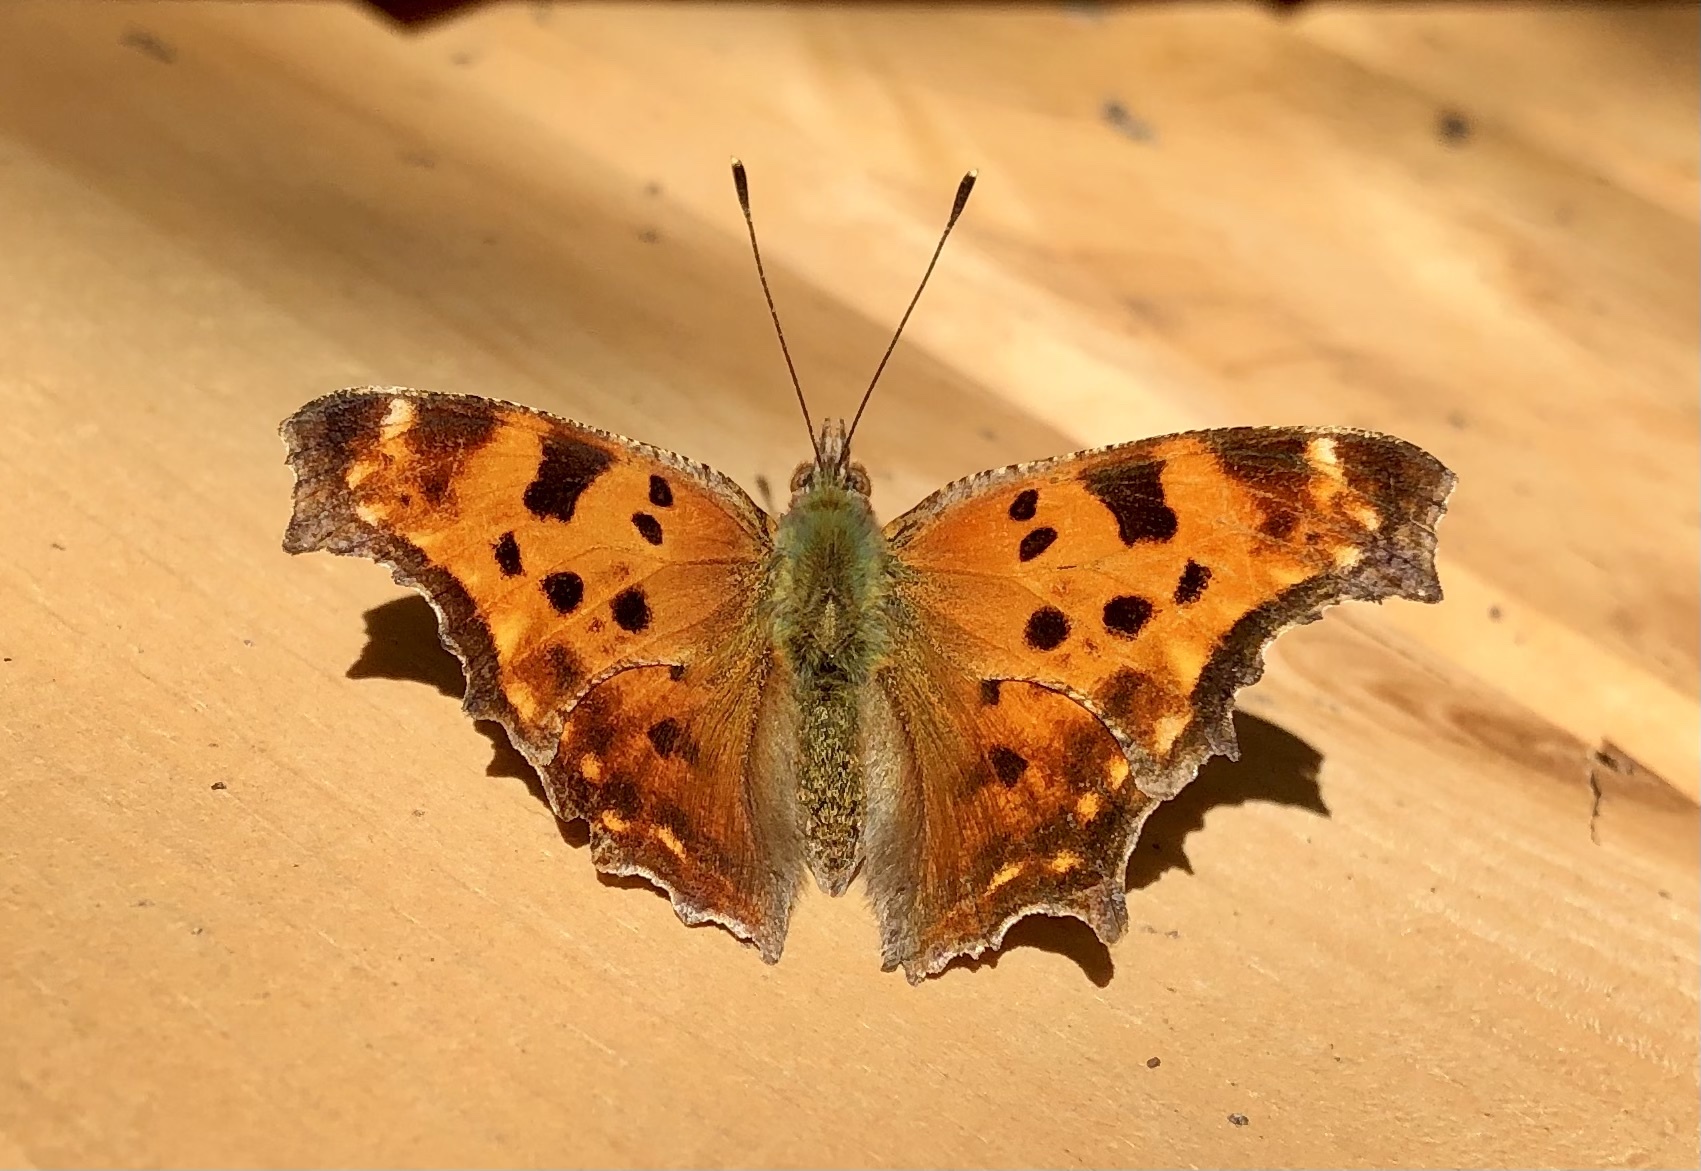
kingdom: Animalia
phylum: Arthropoda
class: Insecta
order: Lepidoptera
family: Nymphalidae
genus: Polygonia
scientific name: Polygonia comma
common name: Eastern comma
